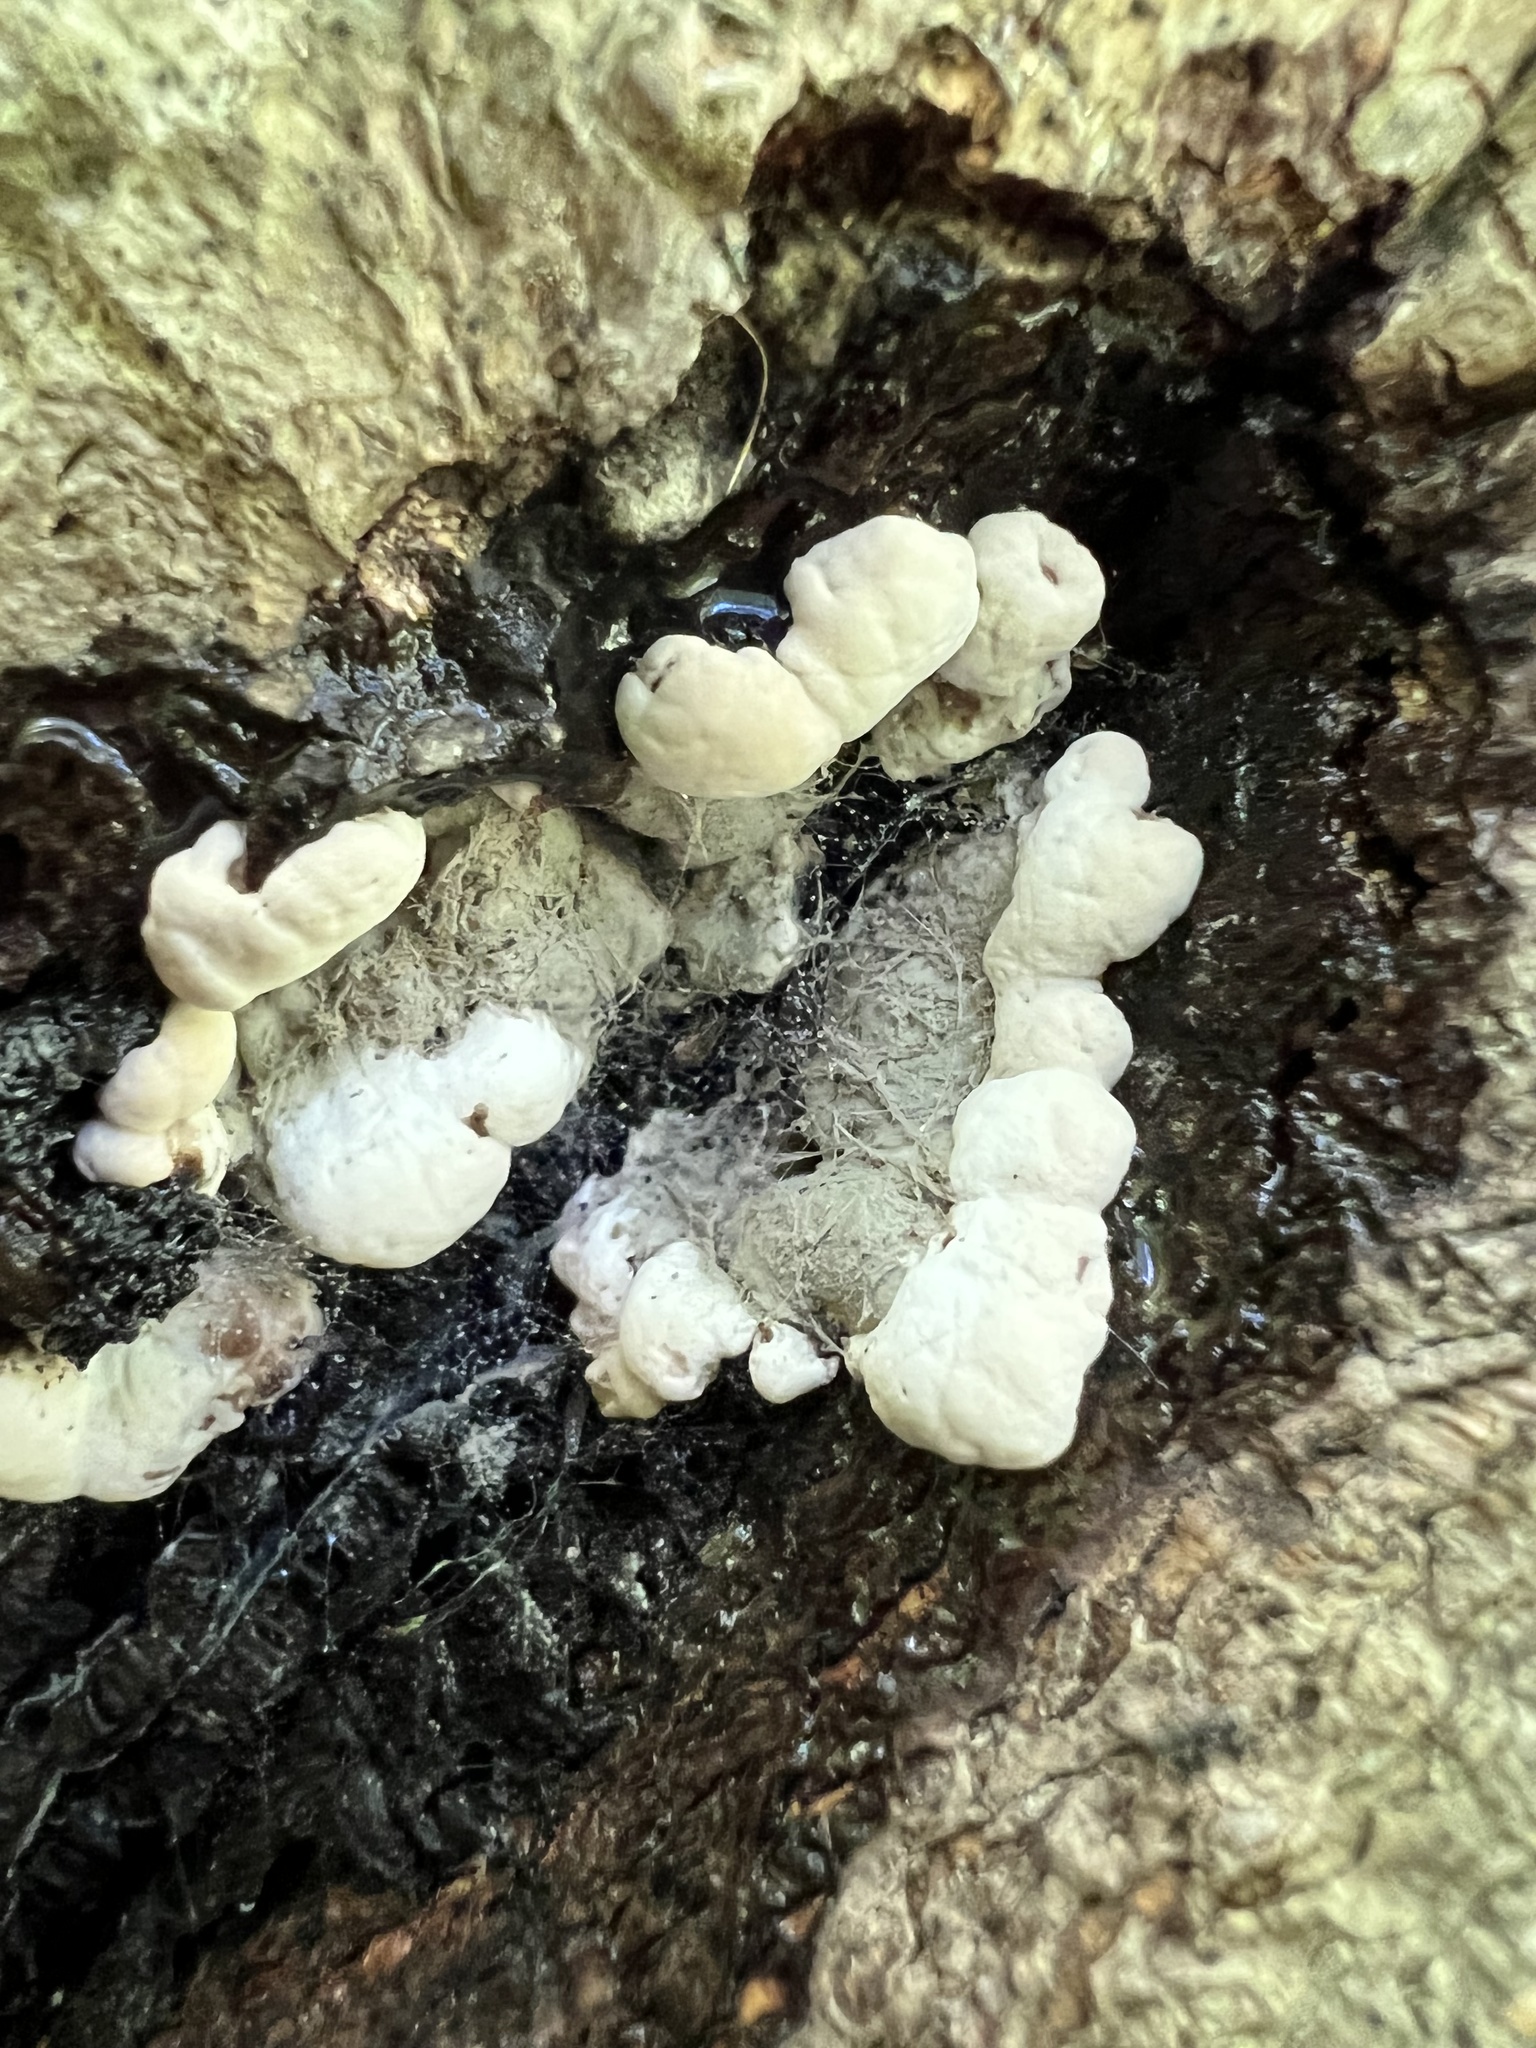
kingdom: Fungi
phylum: Ascomycota
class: Sordariomycetes
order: Xylariales
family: Xylariaceae
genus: Kretzschmaria
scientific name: Kretzschmaria deusta
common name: Brittle cinder
